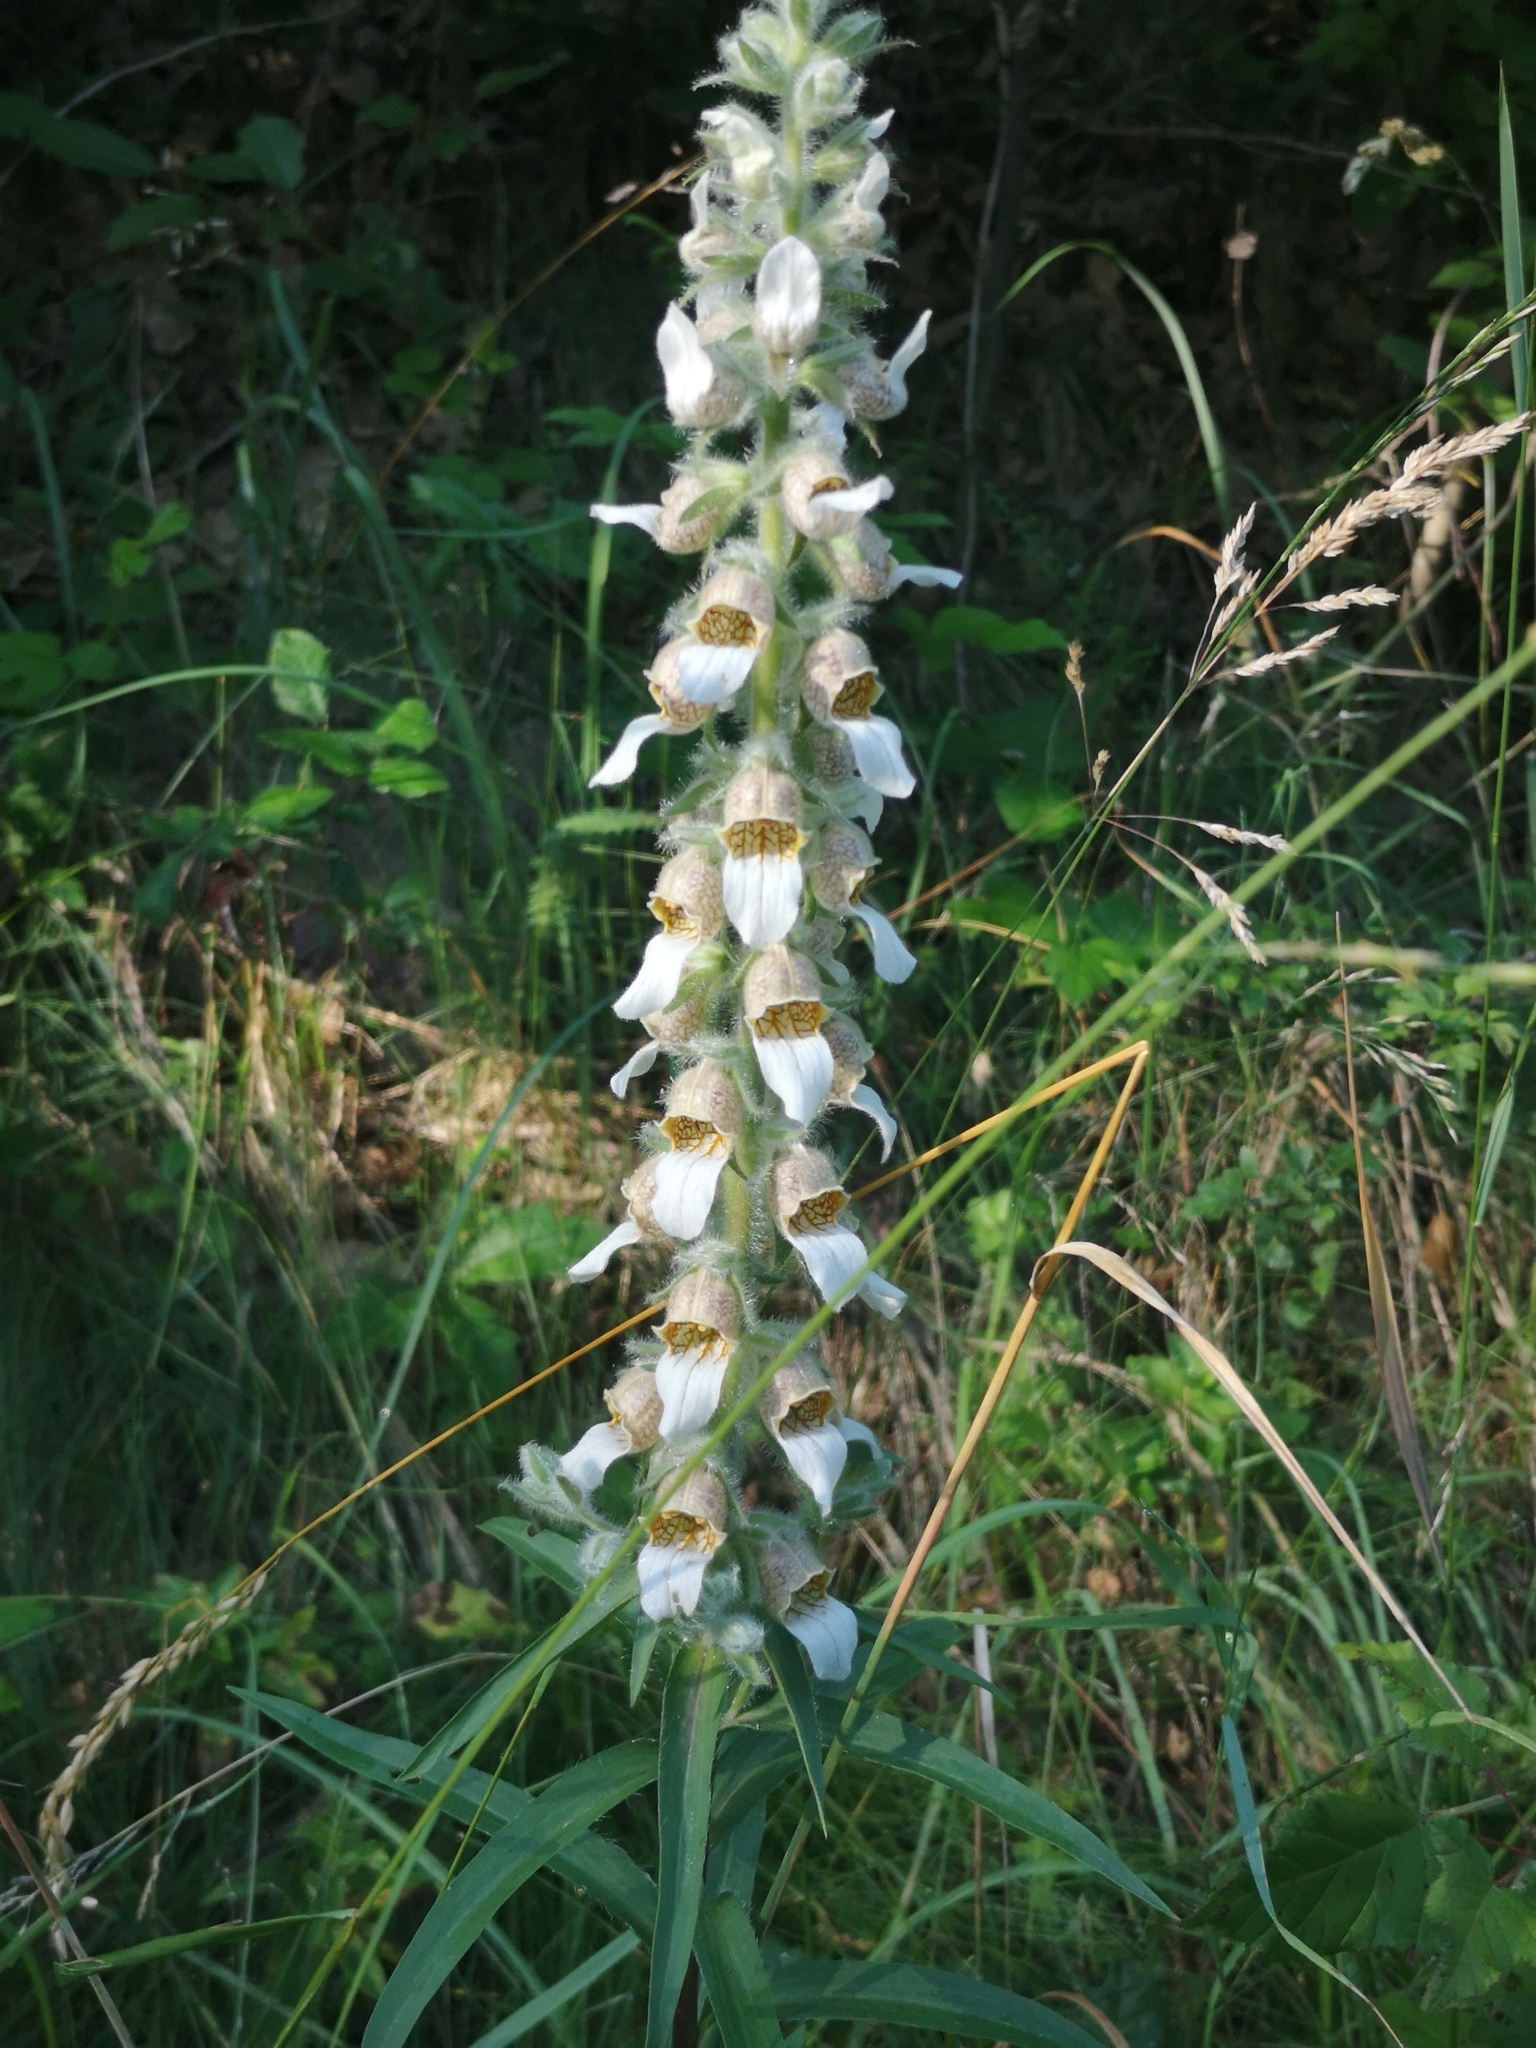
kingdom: Plantae
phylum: Tracheophyta
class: Magnoliopsida
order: Lamiales
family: Plantaginaceae
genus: Digitalis
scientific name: Digitalis lanata
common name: Grecian foxglove
